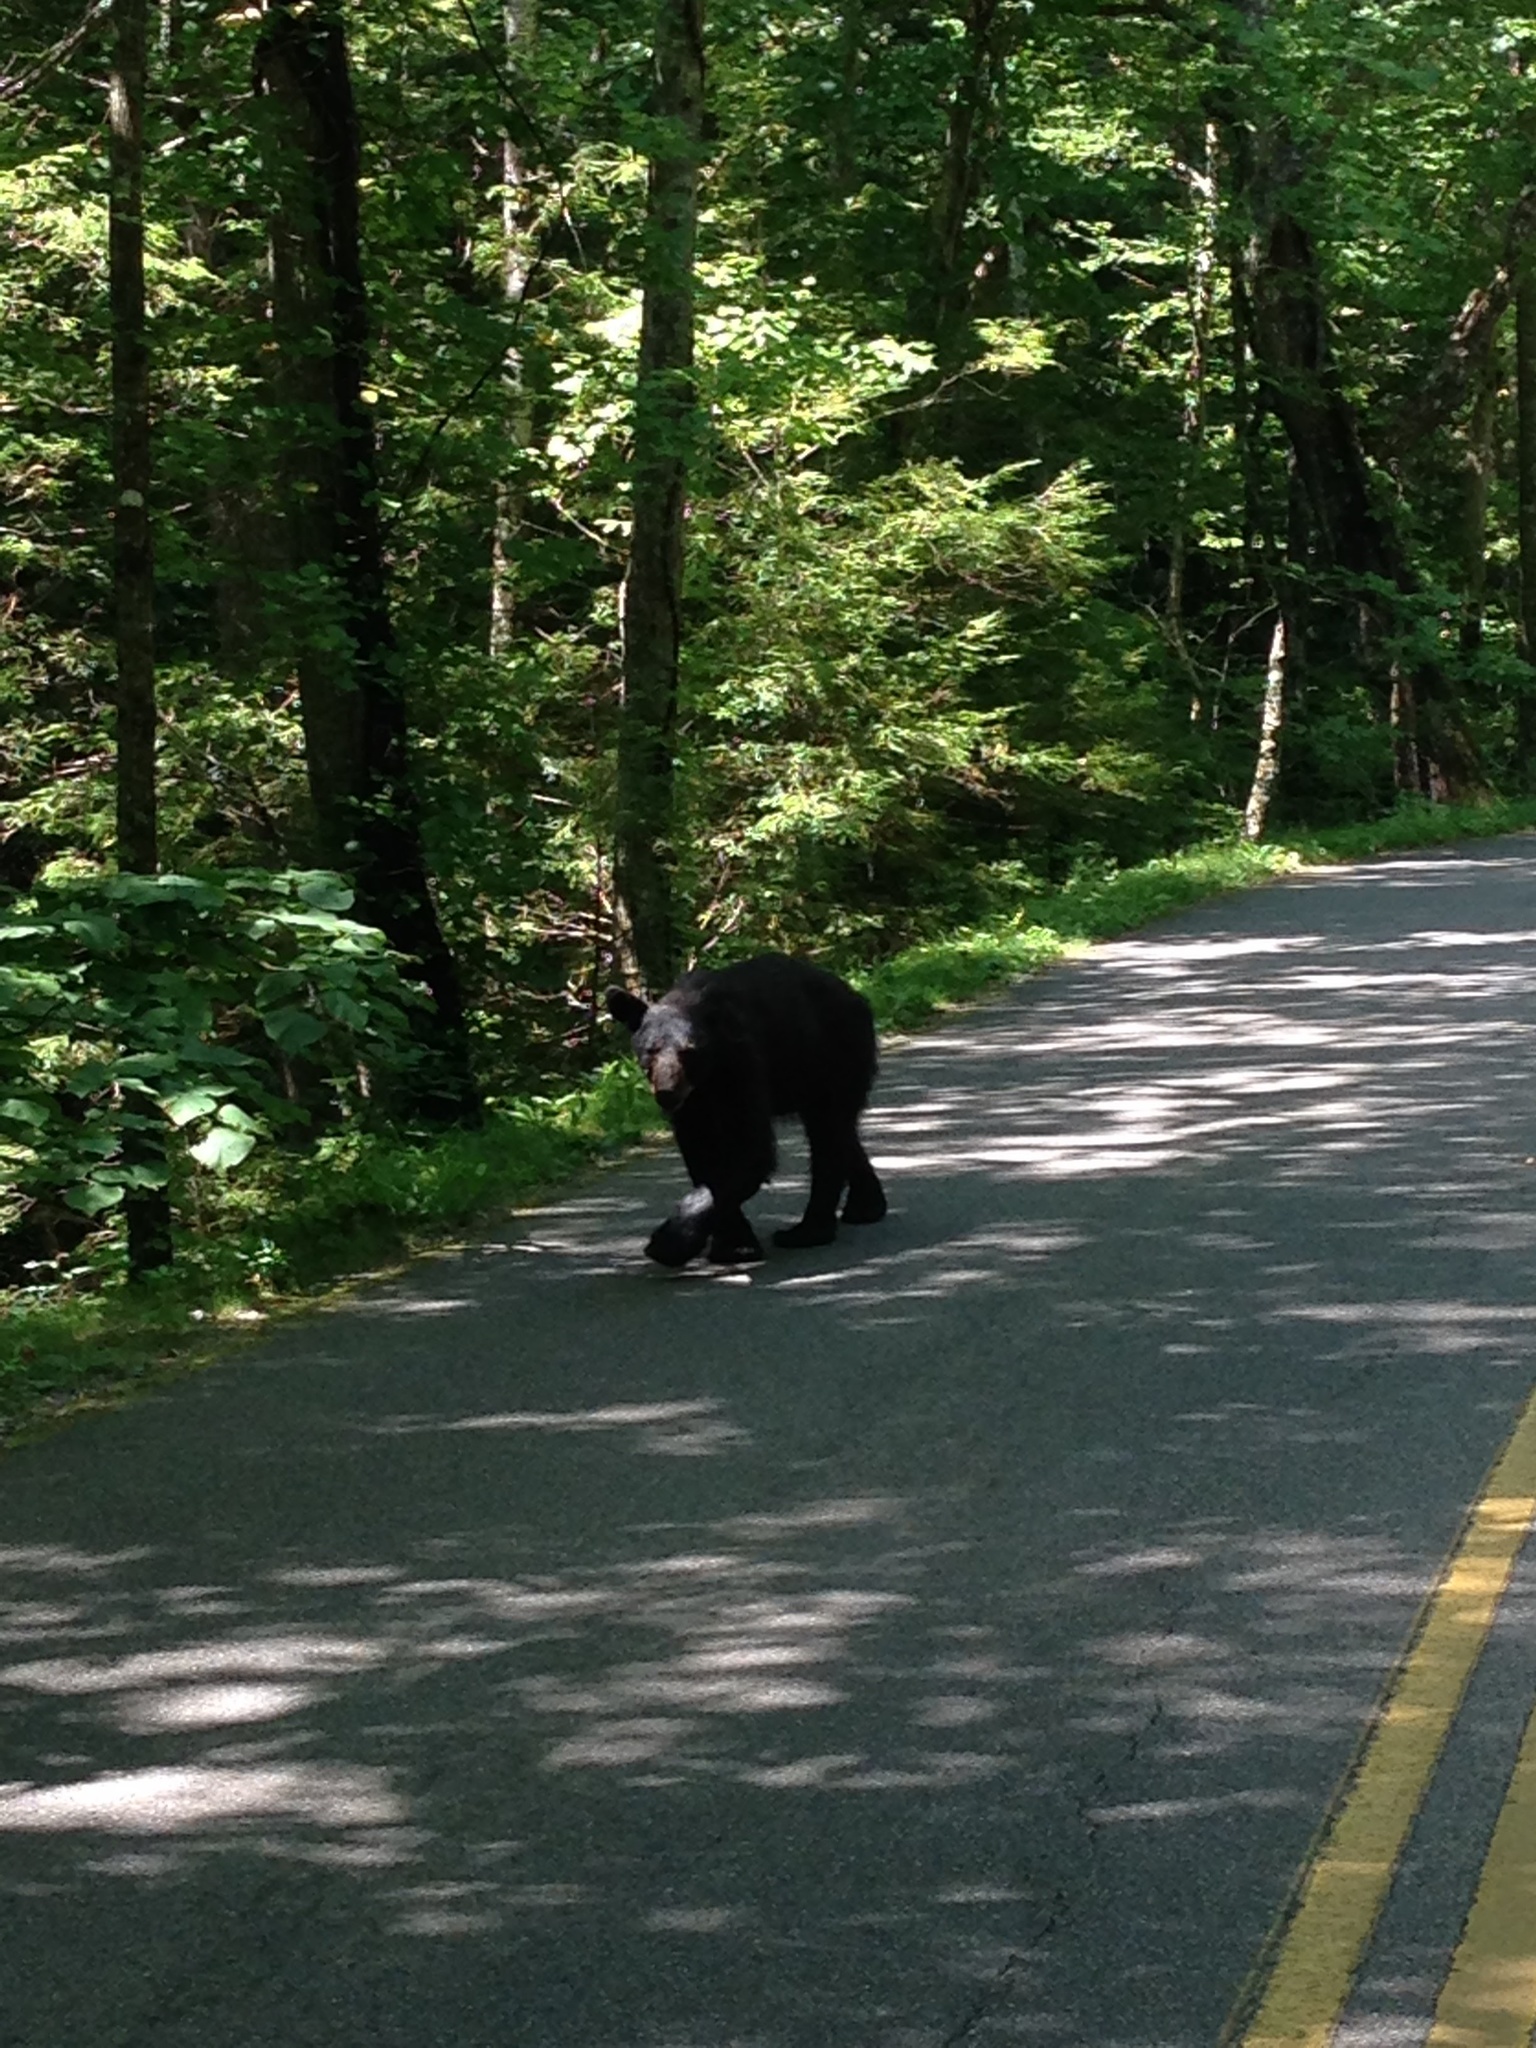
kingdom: Animalia
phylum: Chordata
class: Mammalia
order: Carnivora
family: Ursidae
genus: Ursus
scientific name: Ursus americanus
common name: American black bear
